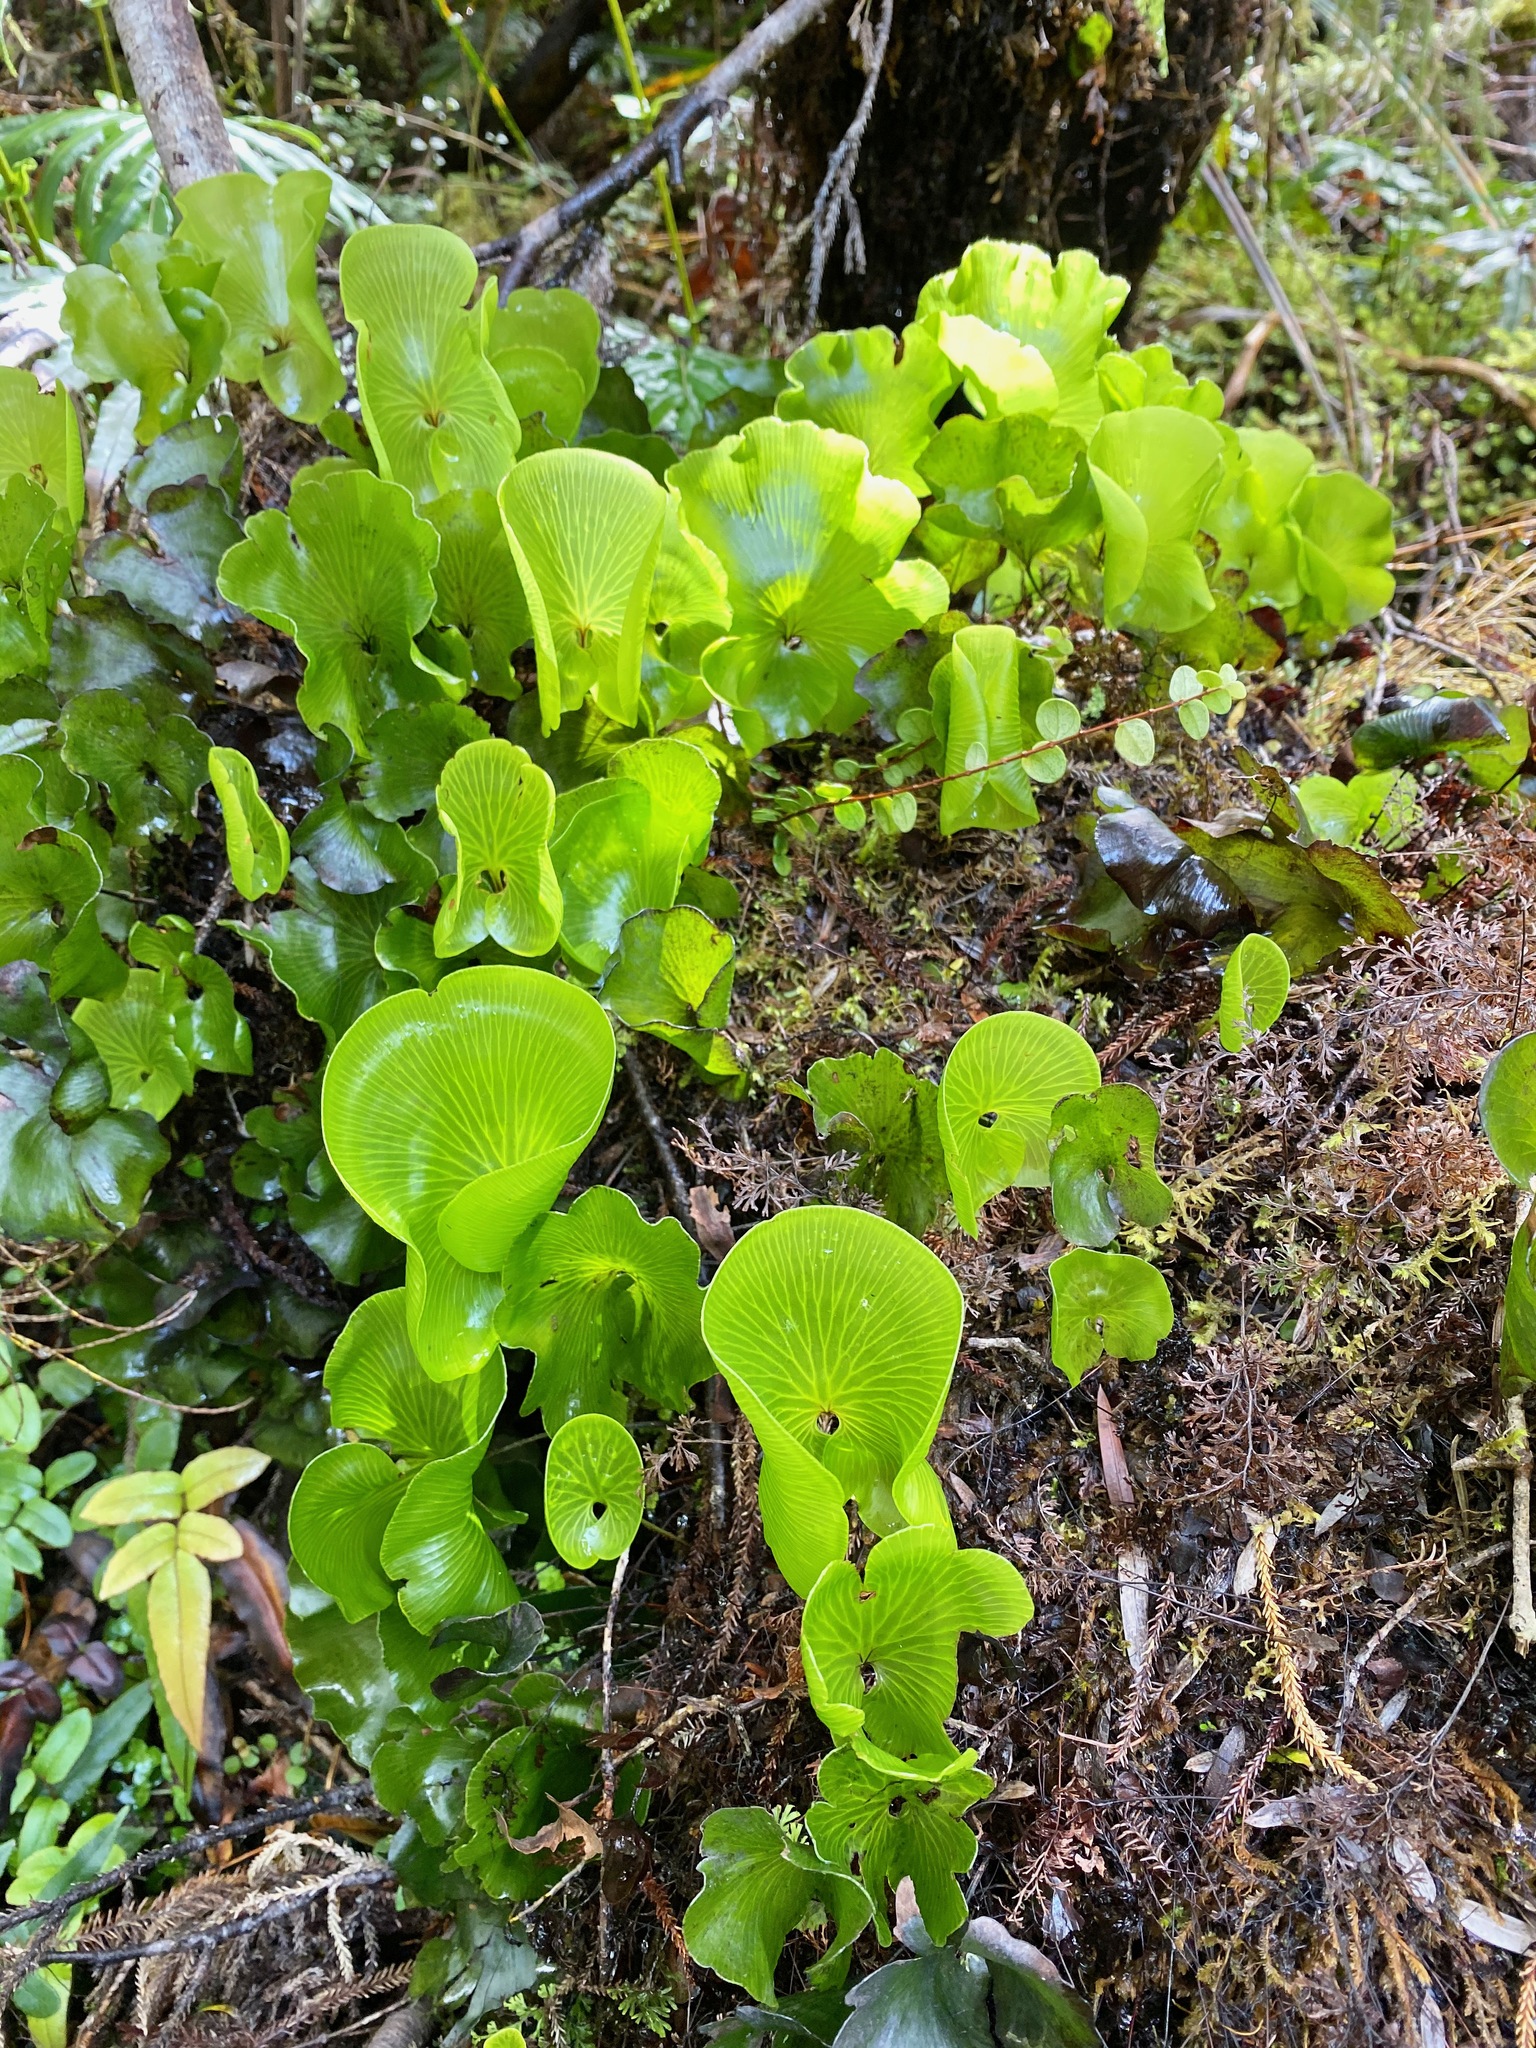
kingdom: Plantae
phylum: Tracheophyta
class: Polypodiopsida
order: Hymenophyllales
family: Hymenophyllaceae
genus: Hymenophyllum
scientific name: Hymenophyllum nephrophyllum
